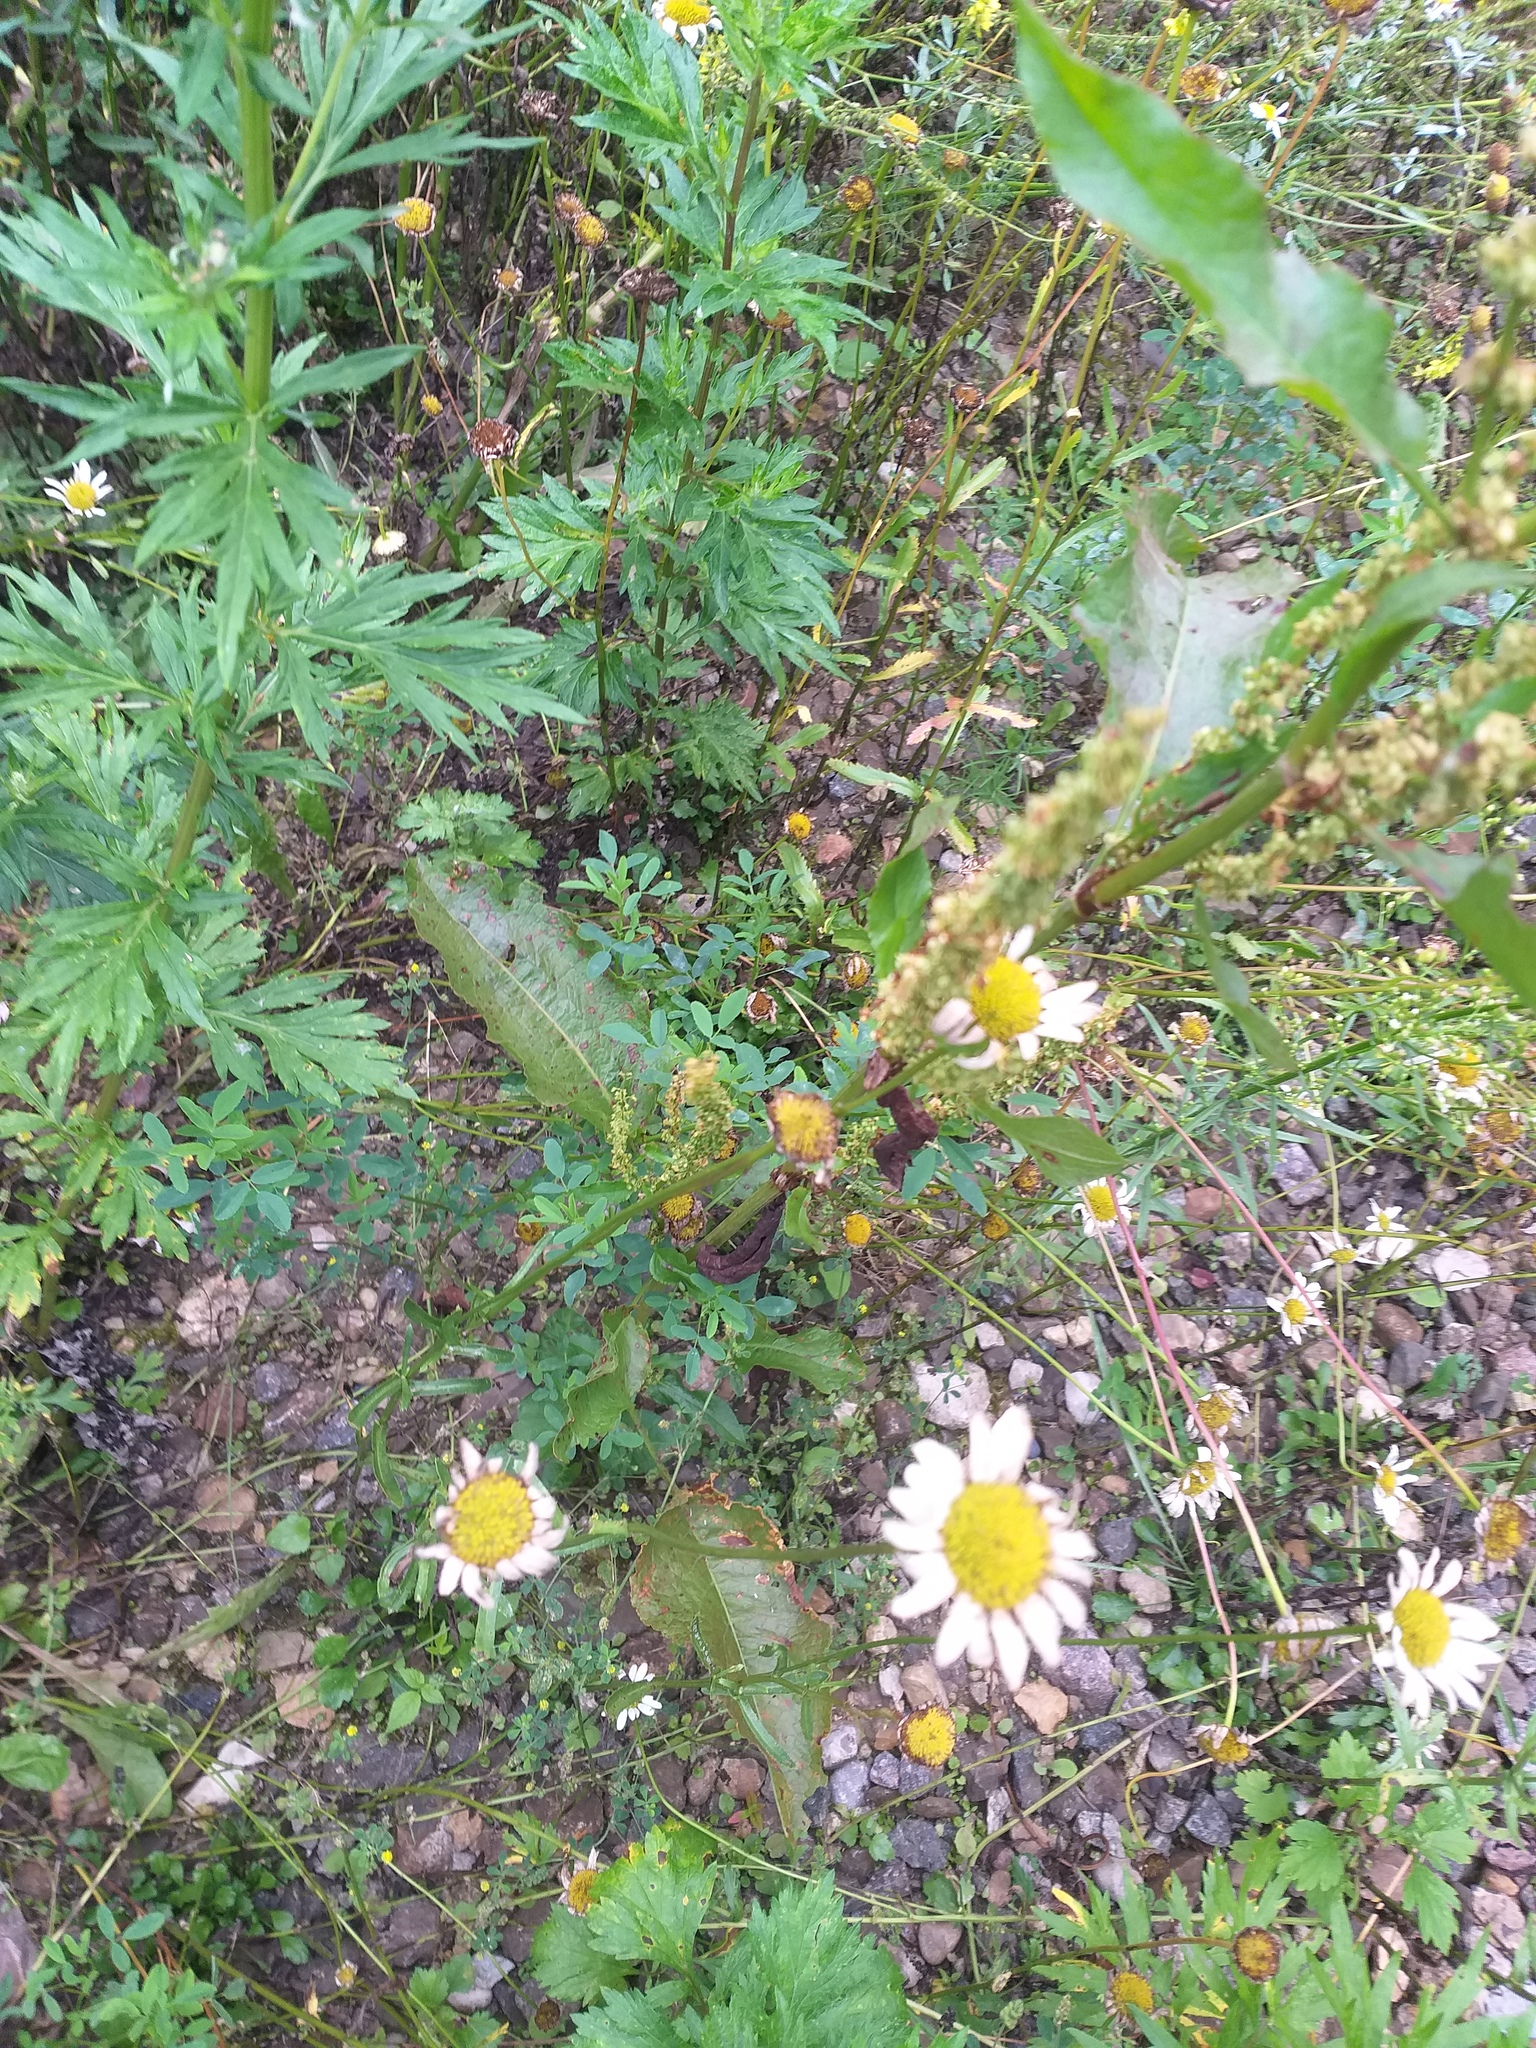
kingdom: Plantae
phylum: Tracheophyta
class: Magnoliopsida
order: Caryophyllales
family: Polygonaceae
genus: Rumex
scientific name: Rumex obtusifolius
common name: Bitter dock
